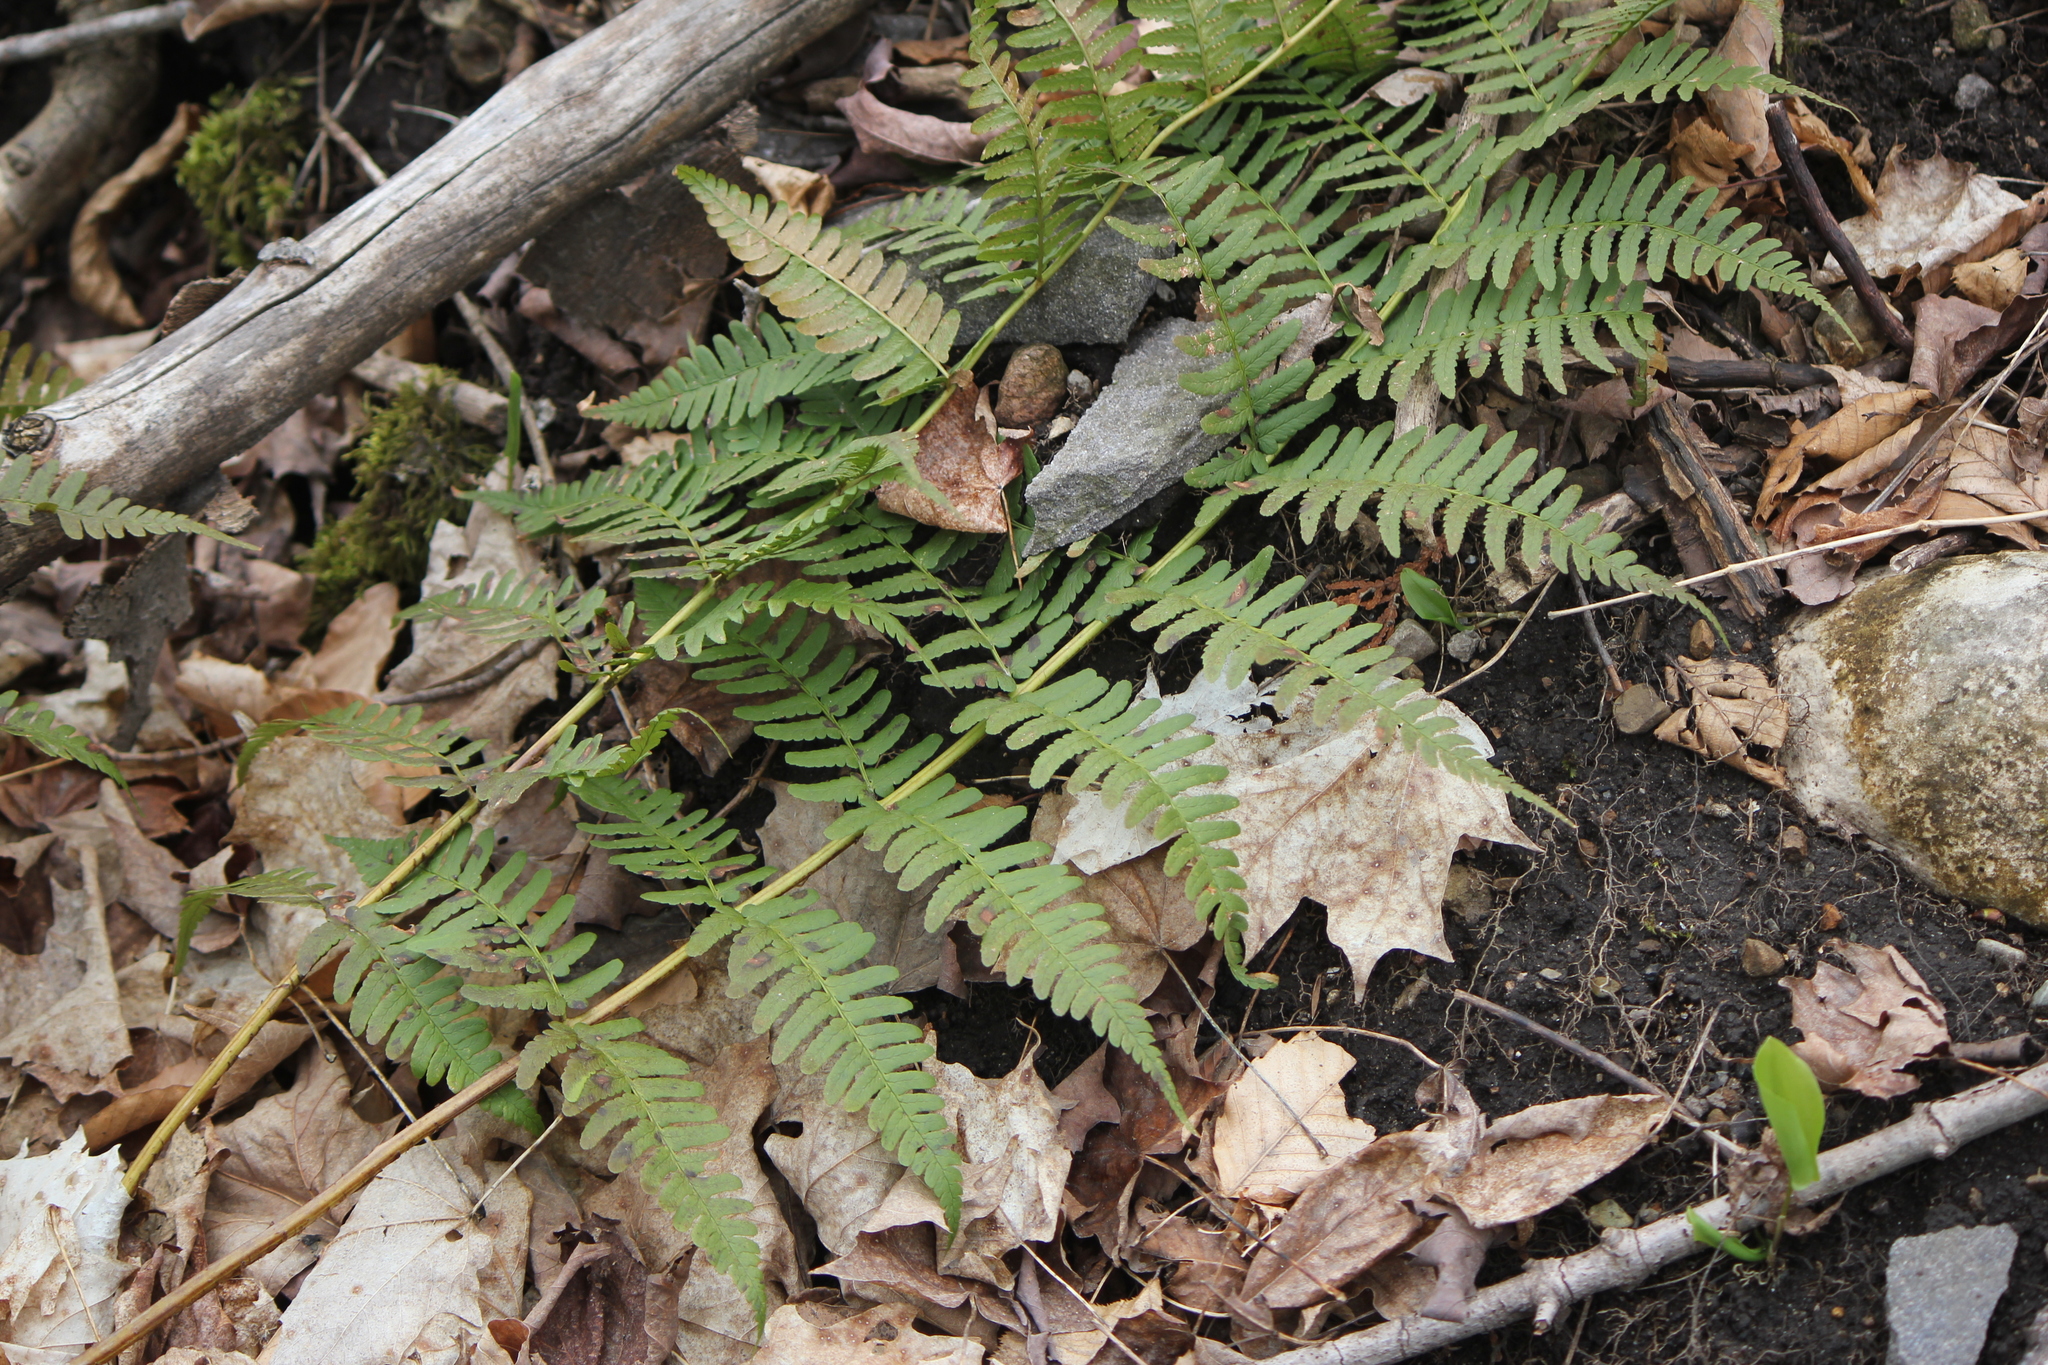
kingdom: Plantae
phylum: Tracheophyta
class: Polypodiopsida
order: Polypodiales
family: Dryopteridaceae
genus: Dryopteris
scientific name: Dryopteris marginalis
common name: Marginal wood fern
